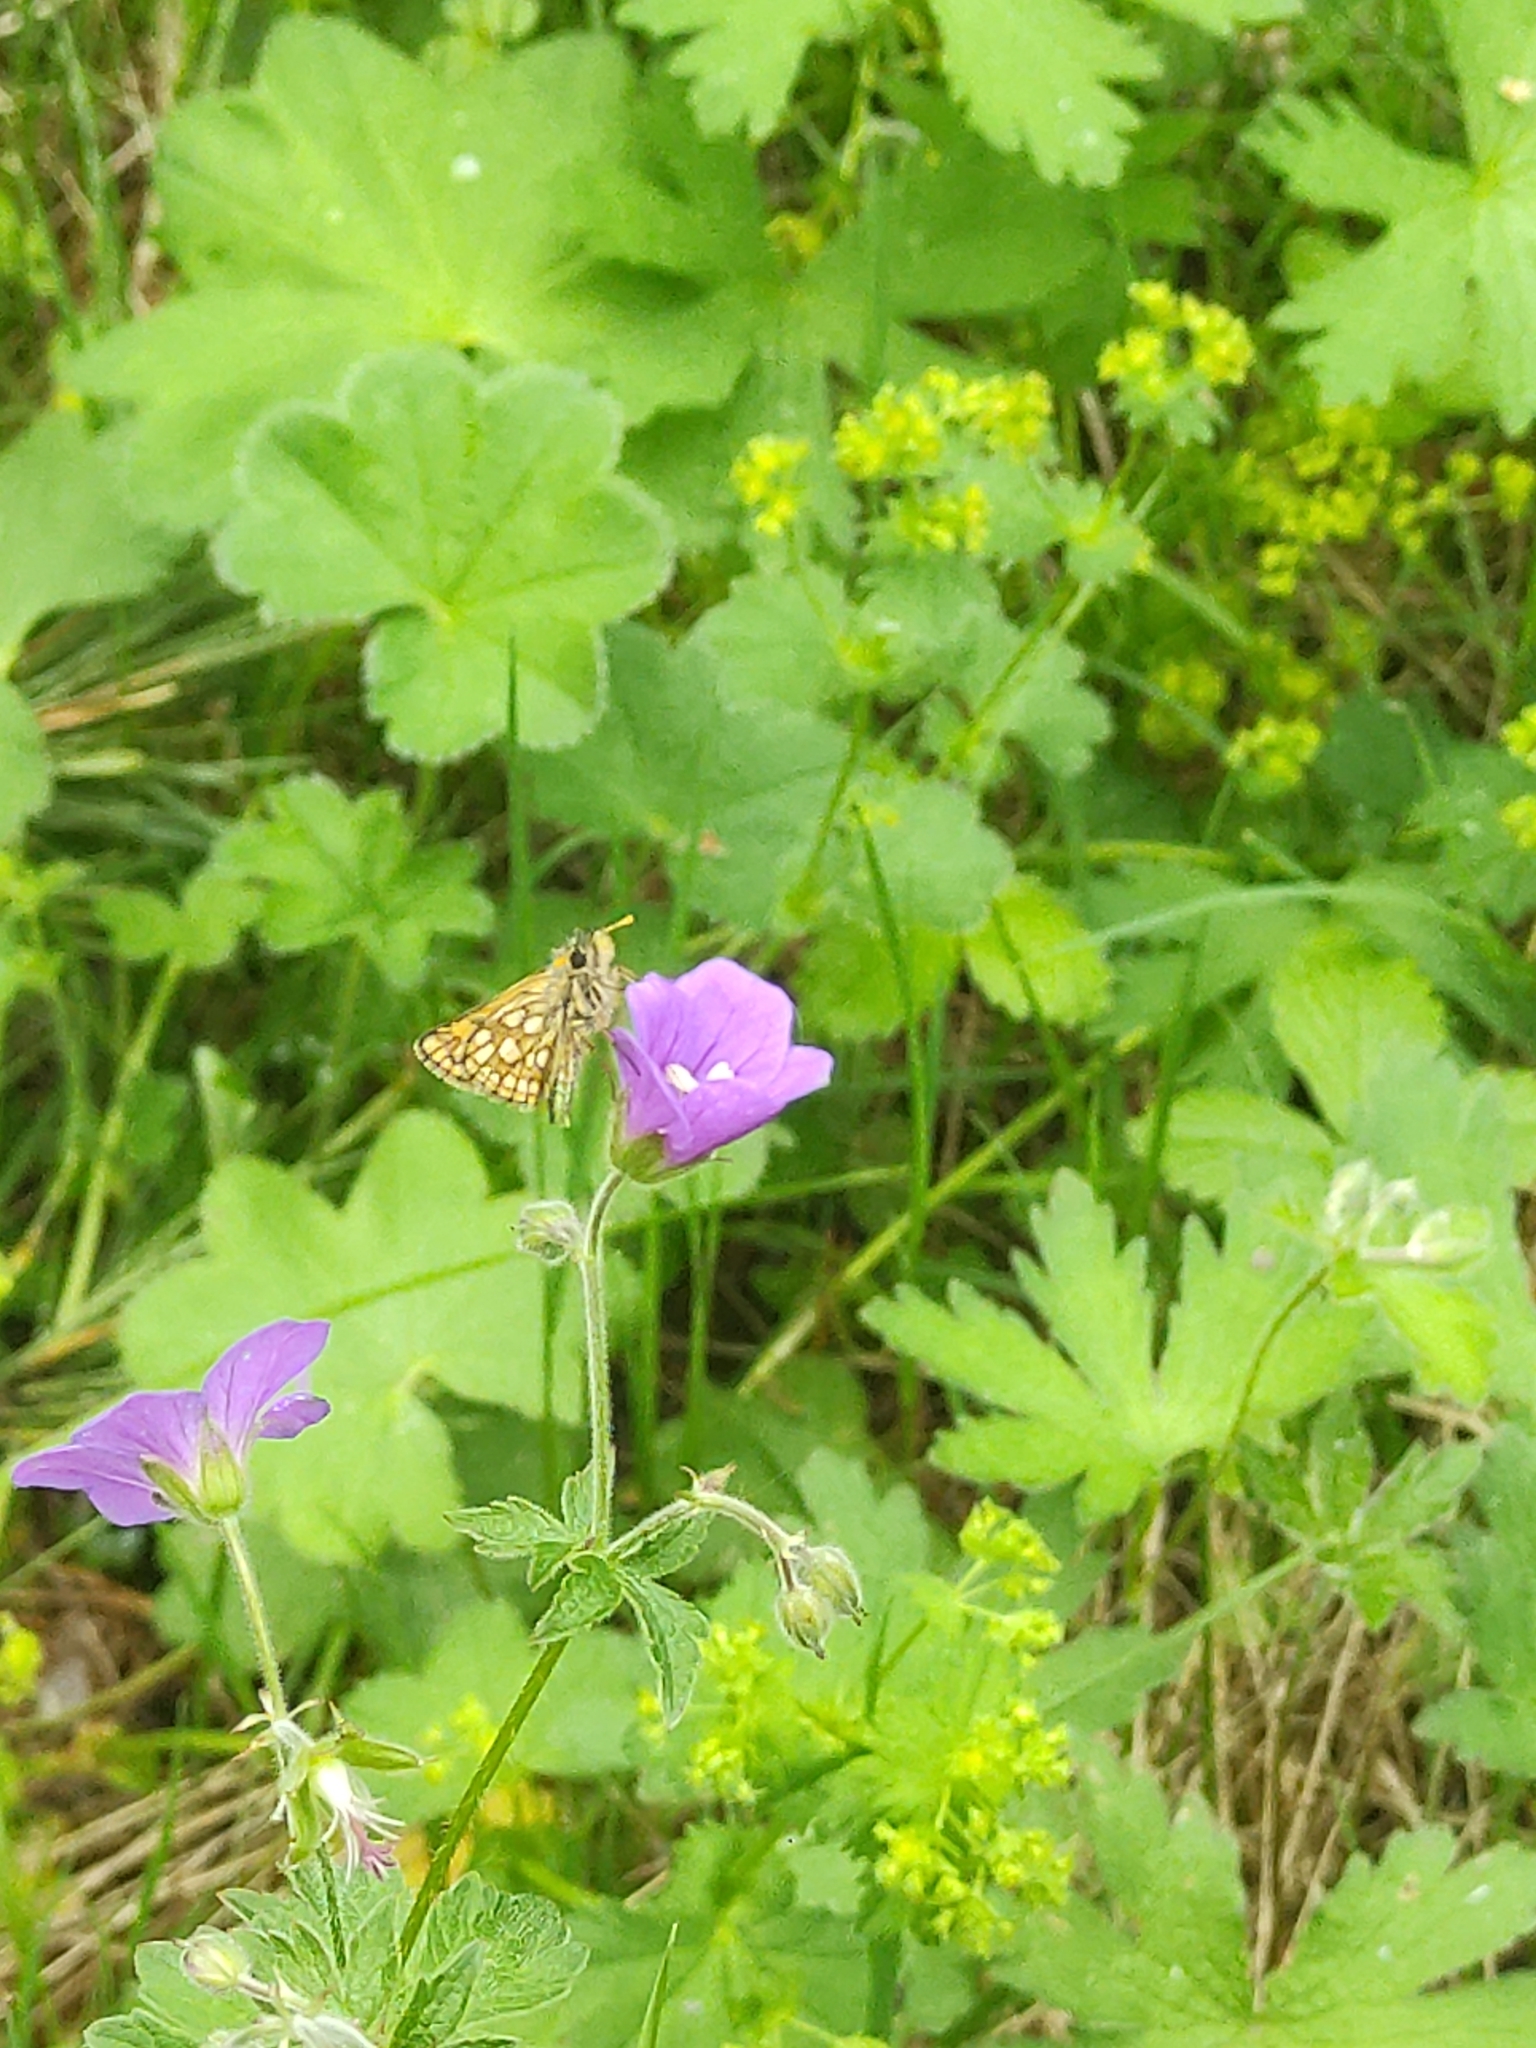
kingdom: Animalia
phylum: Arthropoda
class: Insecta
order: Lepidoptera
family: Hesperiidae
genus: Carterocephalus
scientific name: Carterocephalus palaemon
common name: Chequered skipper
